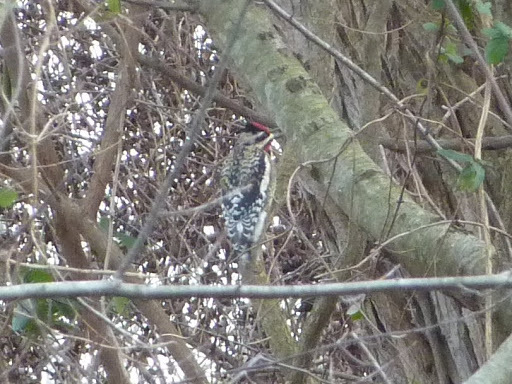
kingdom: Animalia
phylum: Chordata
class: Aves
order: Piciformes
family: Picidae
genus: Sphyrapicus
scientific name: Sphyrapicus varius
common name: Yellow-bellied sapsucker
